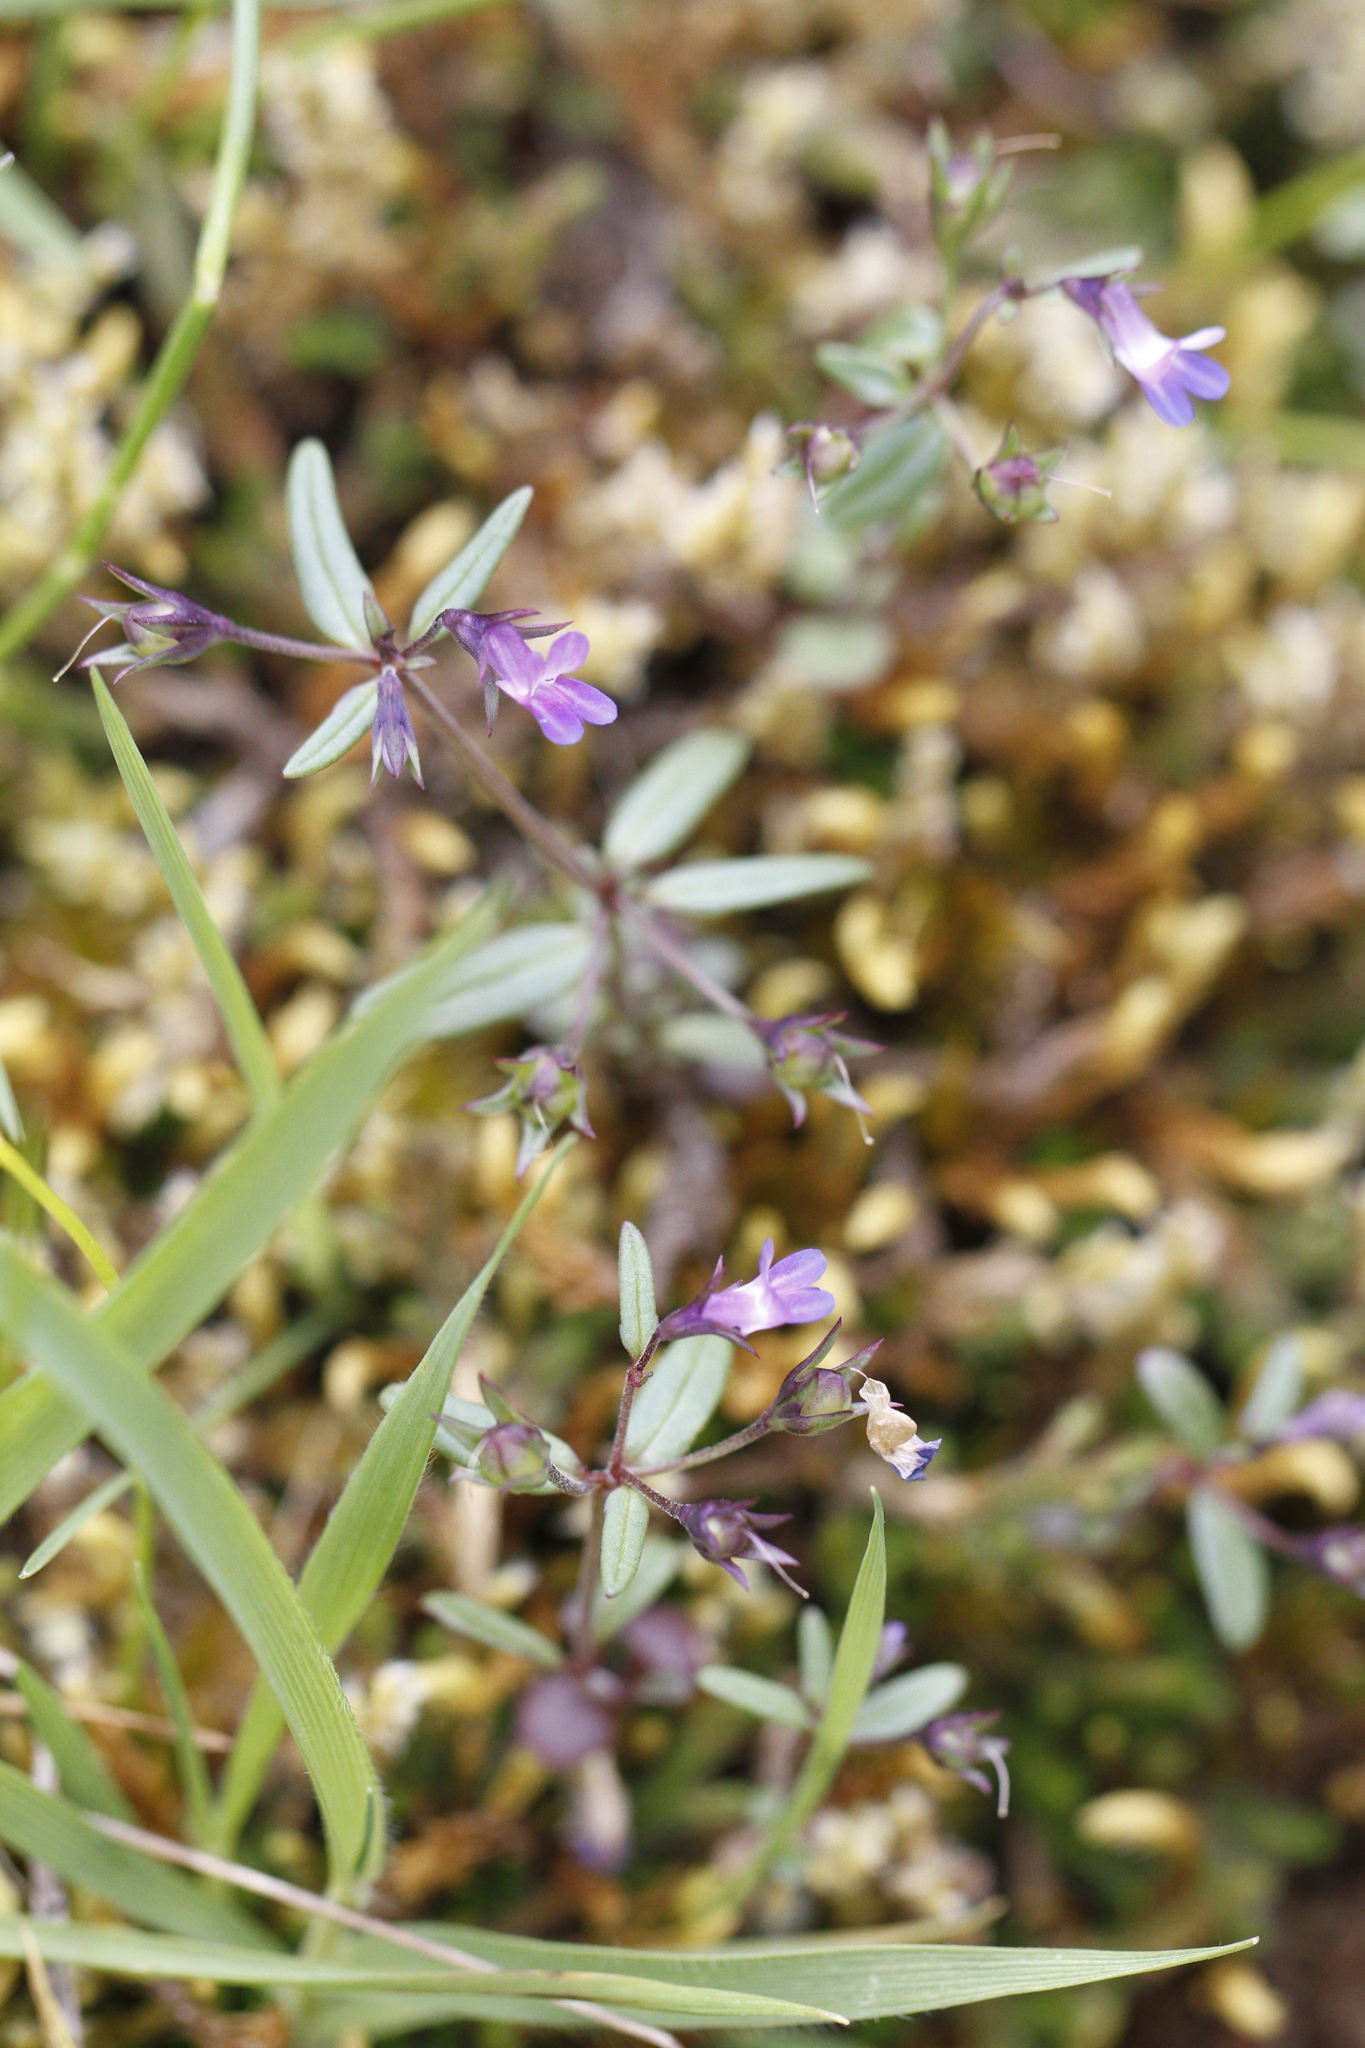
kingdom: Plantae
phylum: Tracheophyta
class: Magnoliopsida
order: Lamiales
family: Plantaginaceae
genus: Collinsia
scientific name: Collinsia parviflora
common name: Blue-lips
